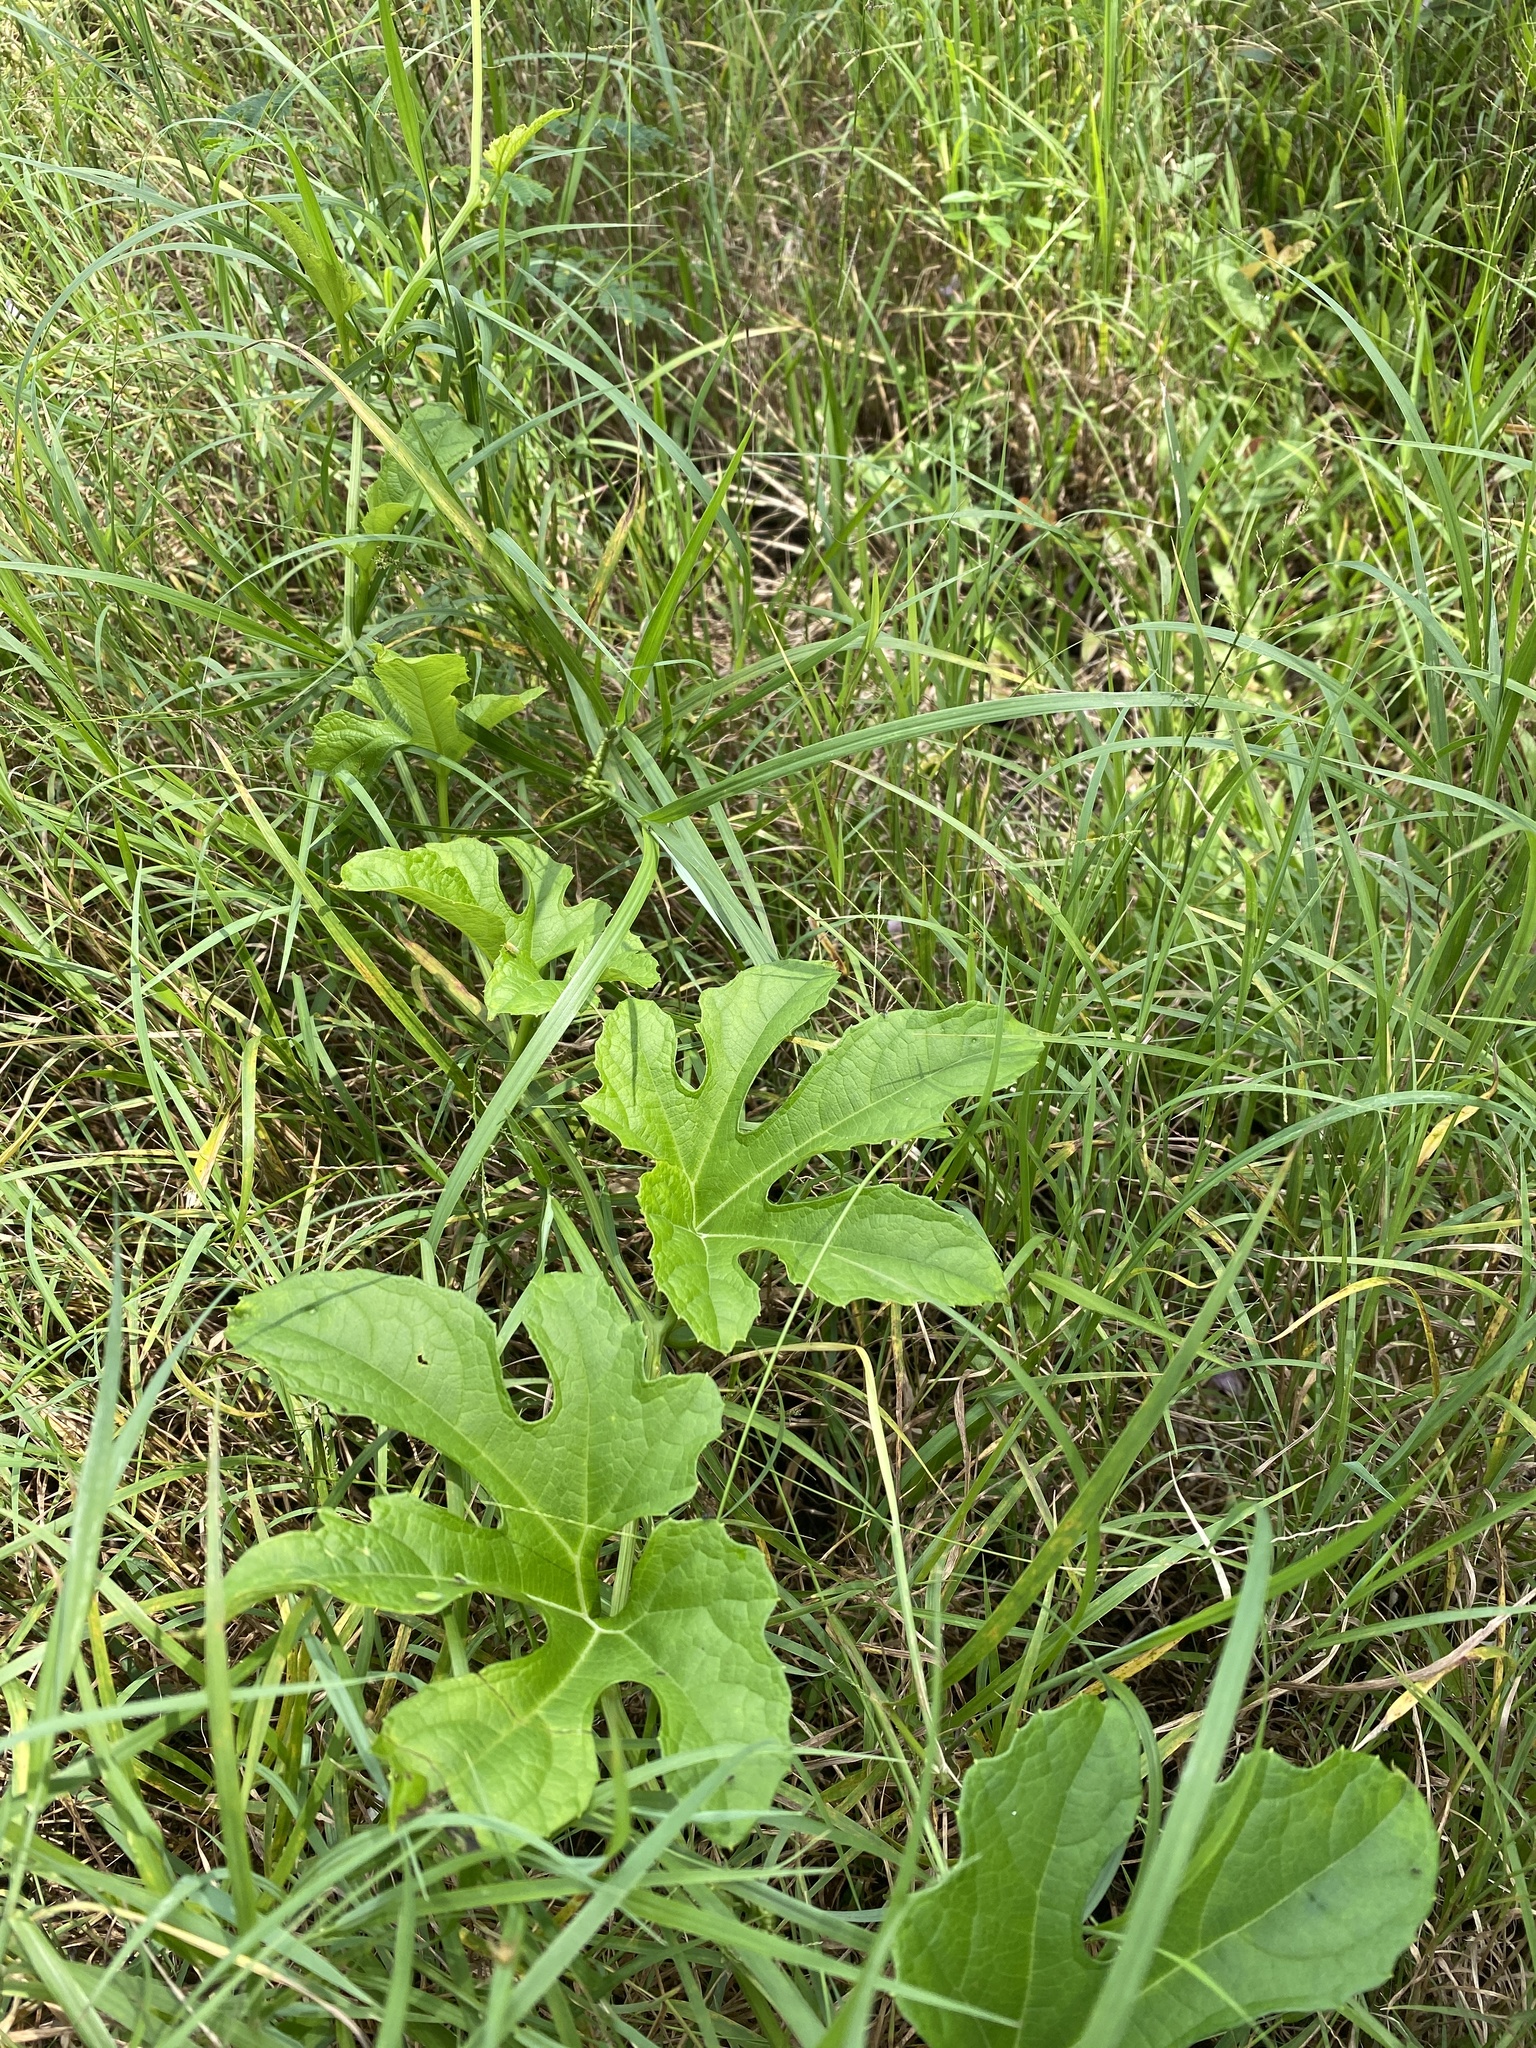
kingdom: Plantae
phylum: Tracheophyta
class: Magnoliopsida
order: Cucurbitales
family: Cucurbitaceae
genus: Momordica
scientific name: Momordica charantia
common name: Balsampear
